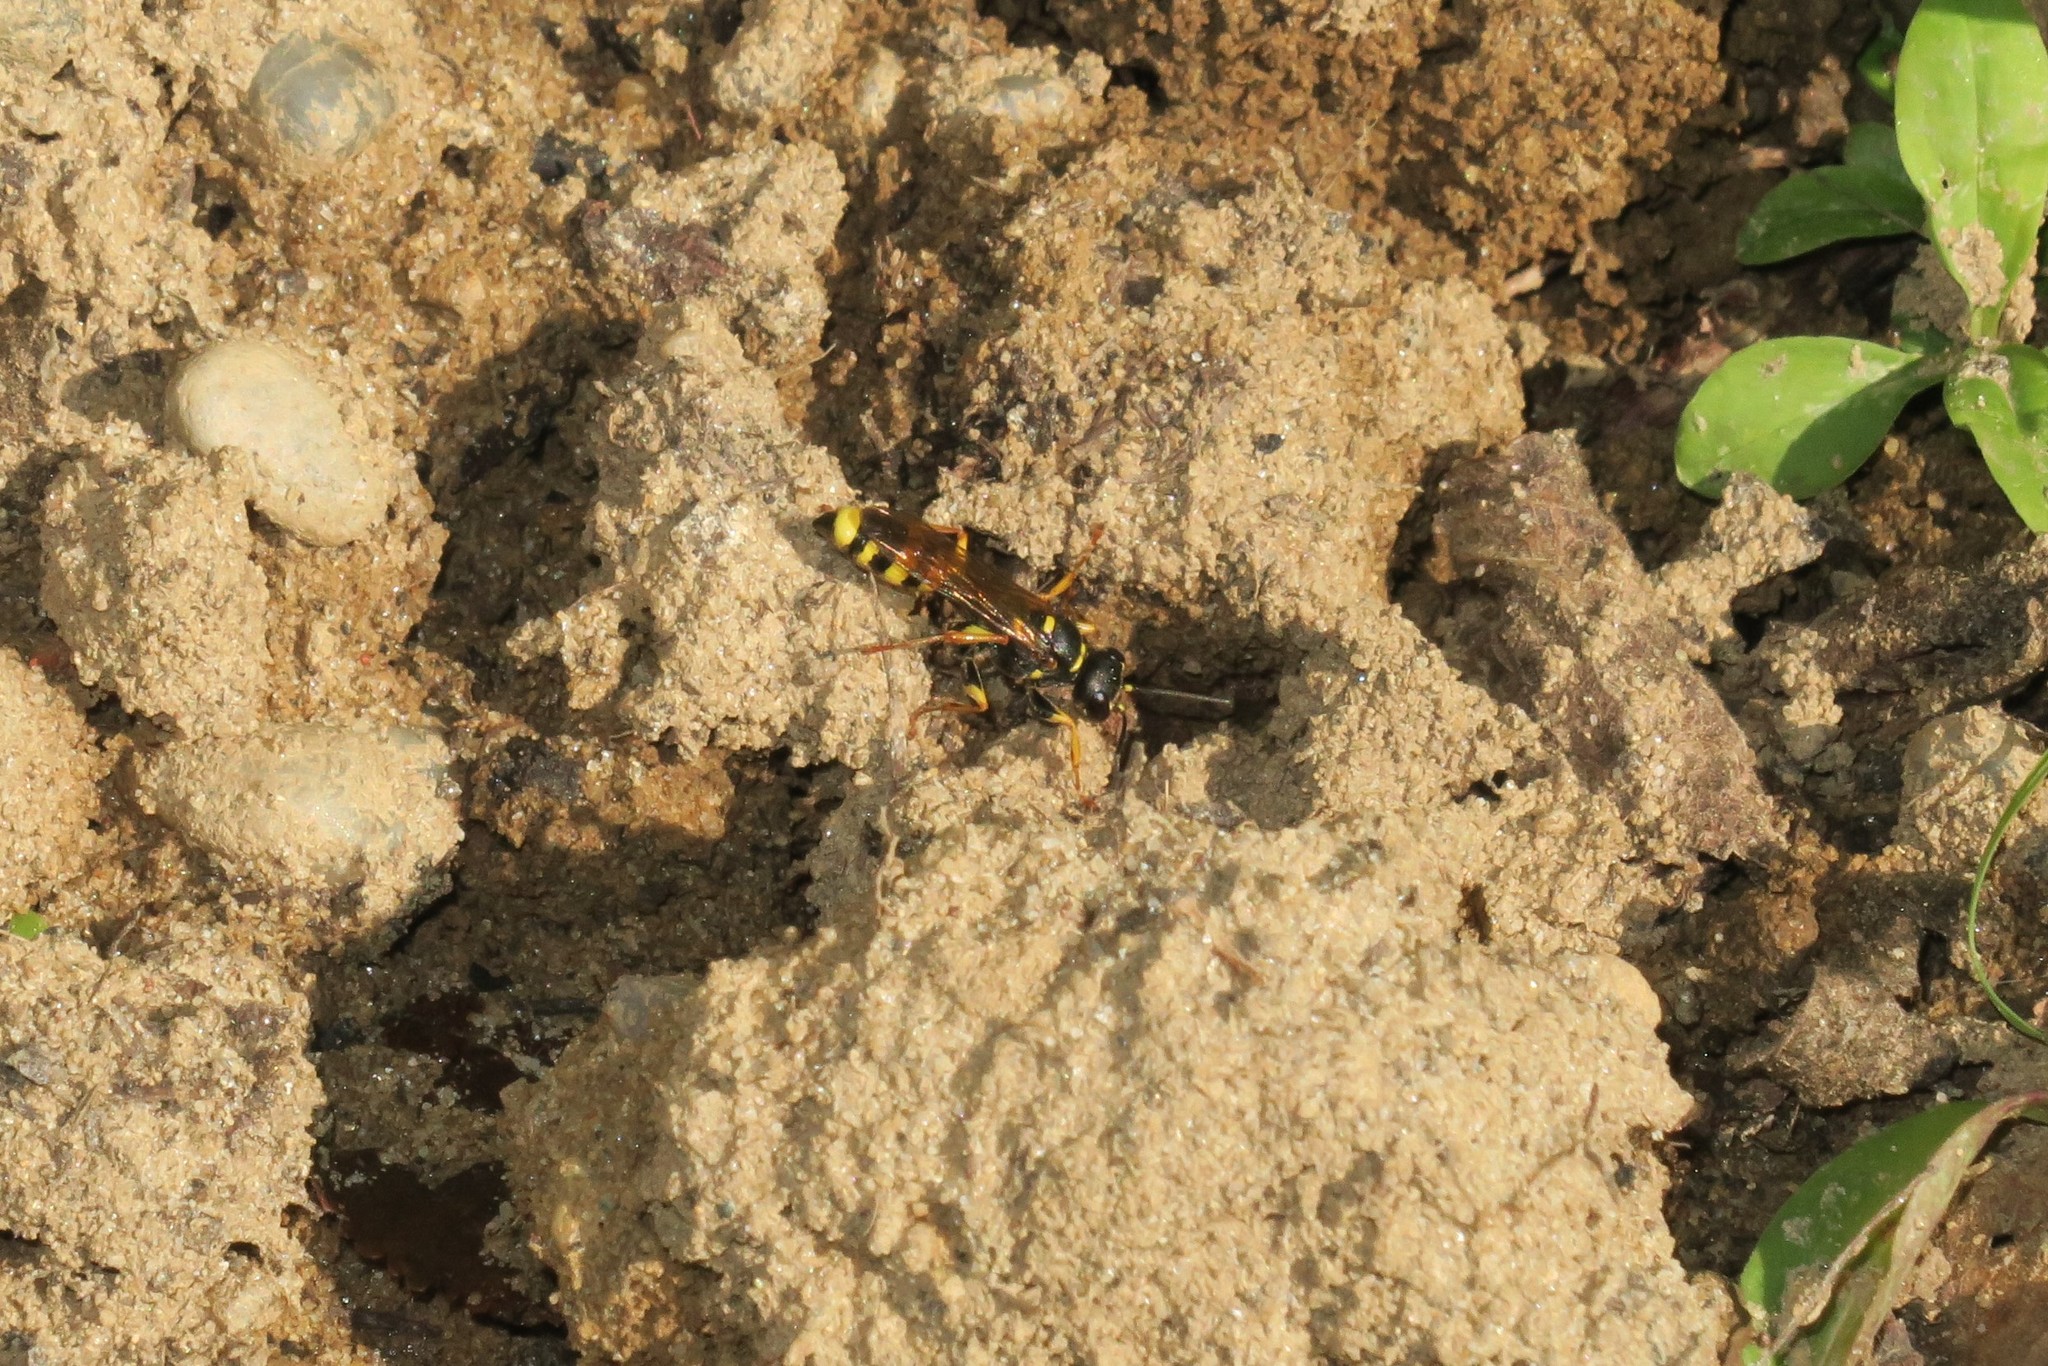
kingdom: Animalia
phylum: Arthropoda
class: Insecta
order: Hymenoptera
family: Crabronidae
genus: Mellinus
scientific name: Mellinus arvensis
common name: Field digger wasp
